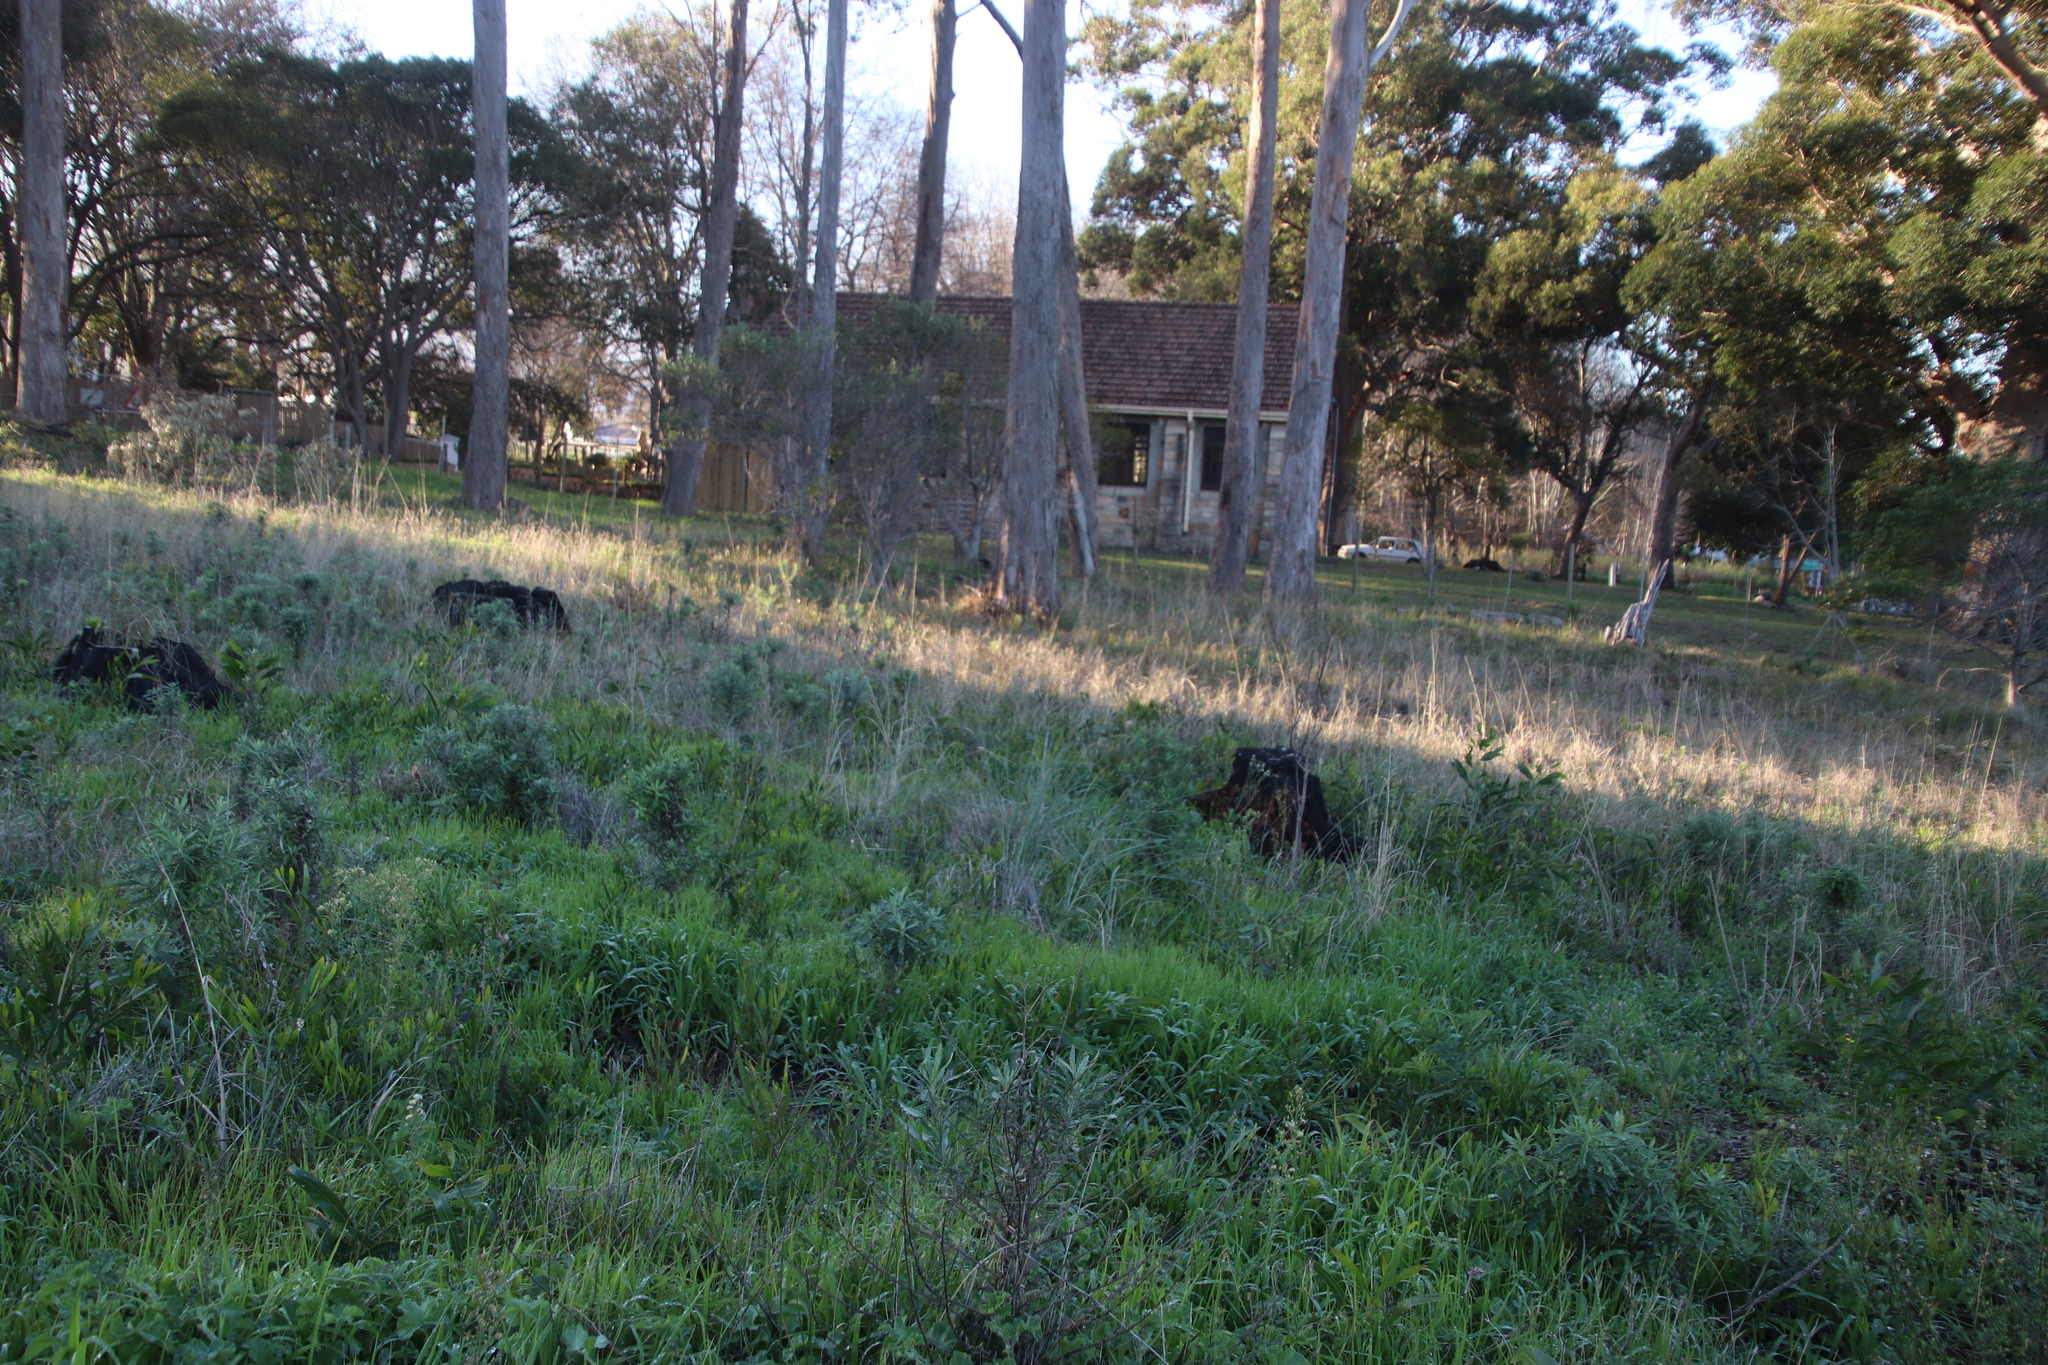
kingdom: Plantae
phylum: Tracheophyta
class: Magnoliopsida
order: Fabales
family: Fabaceae
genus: Acacia
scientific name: Acacia longifolia
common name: Sydney golden wattle
